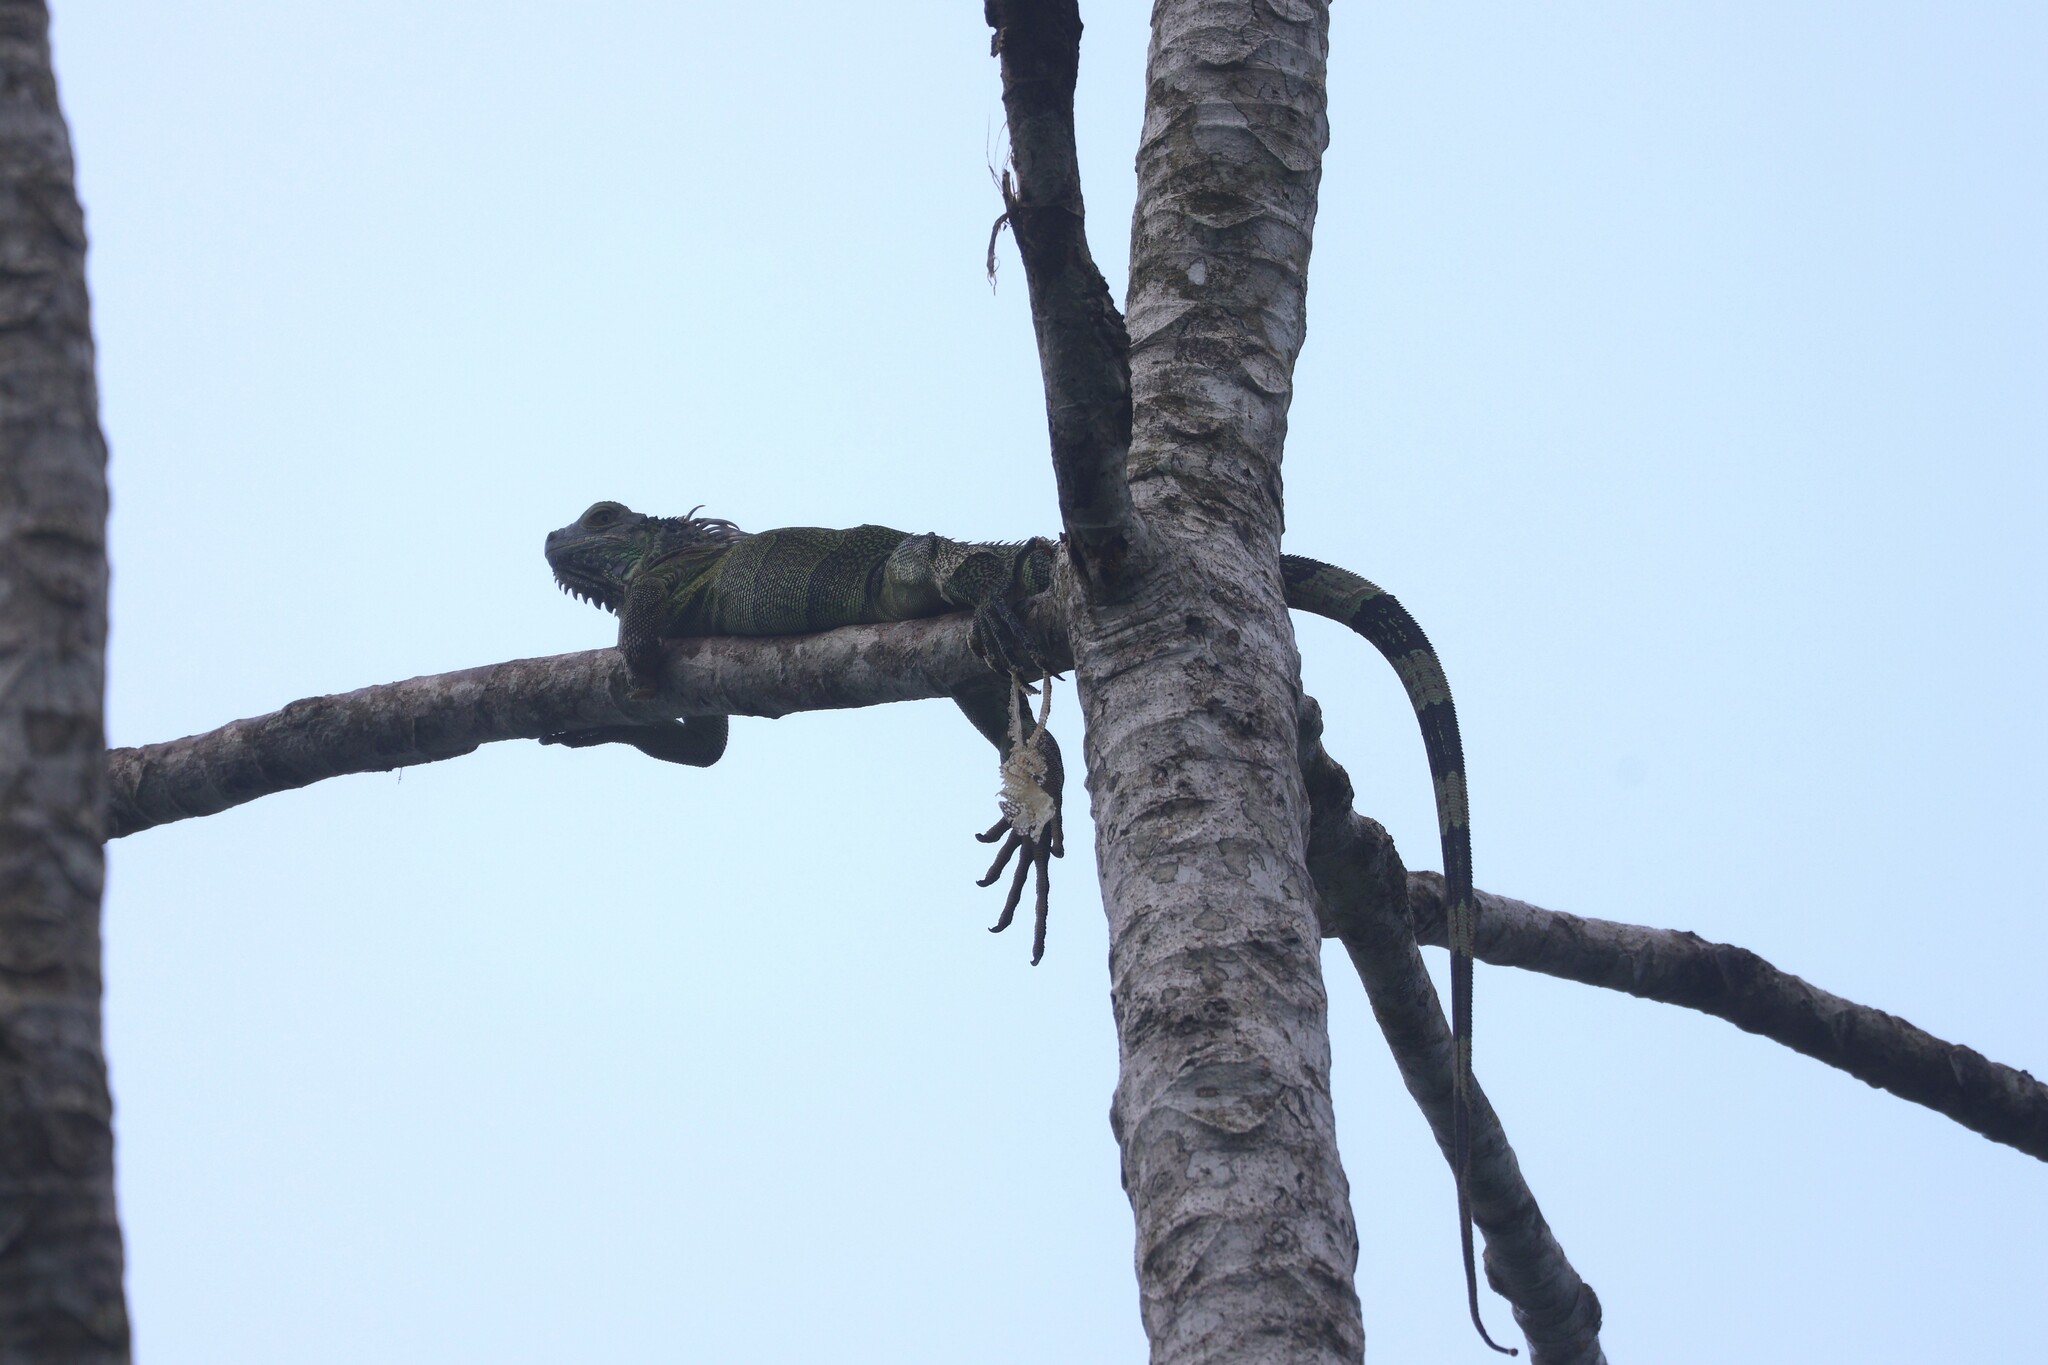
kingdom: Animalia
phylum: Chordata
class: Squamata
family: Iguanidae
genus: Iguana
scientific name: Iguana iguana
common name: Green iguana
